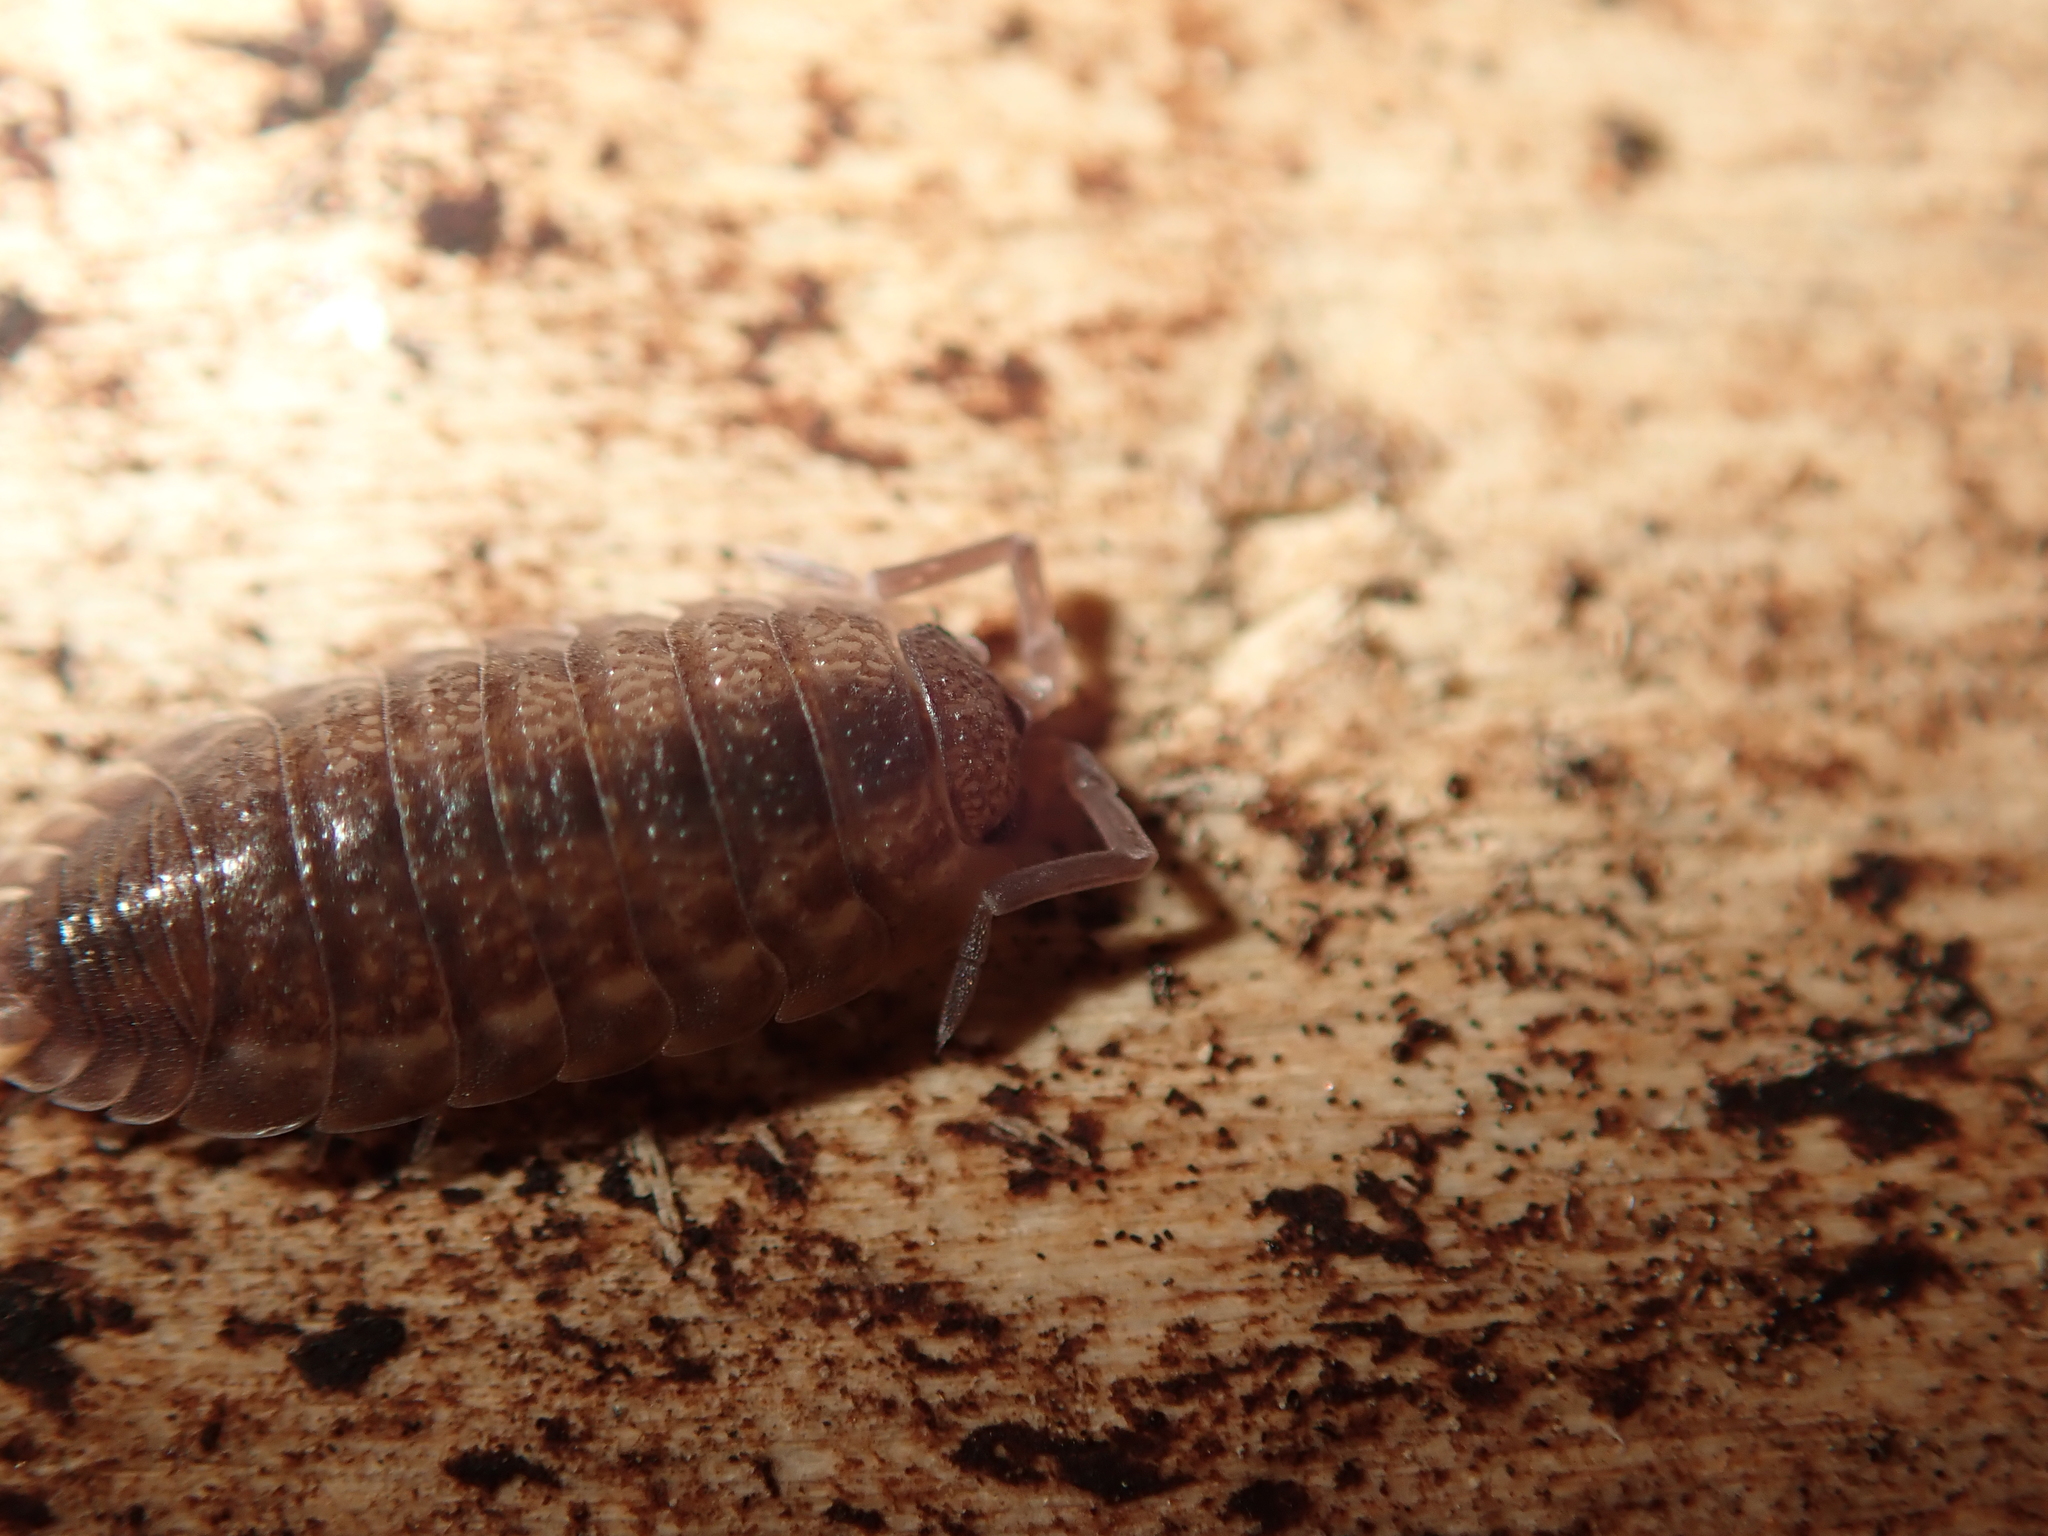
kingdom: Animalia
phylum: Arthropoda
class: Malacostraca
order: Isopoda
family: Porcellionidae
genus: Porcellio
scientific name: Porcellio scaber
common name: Common rough woodlouse
